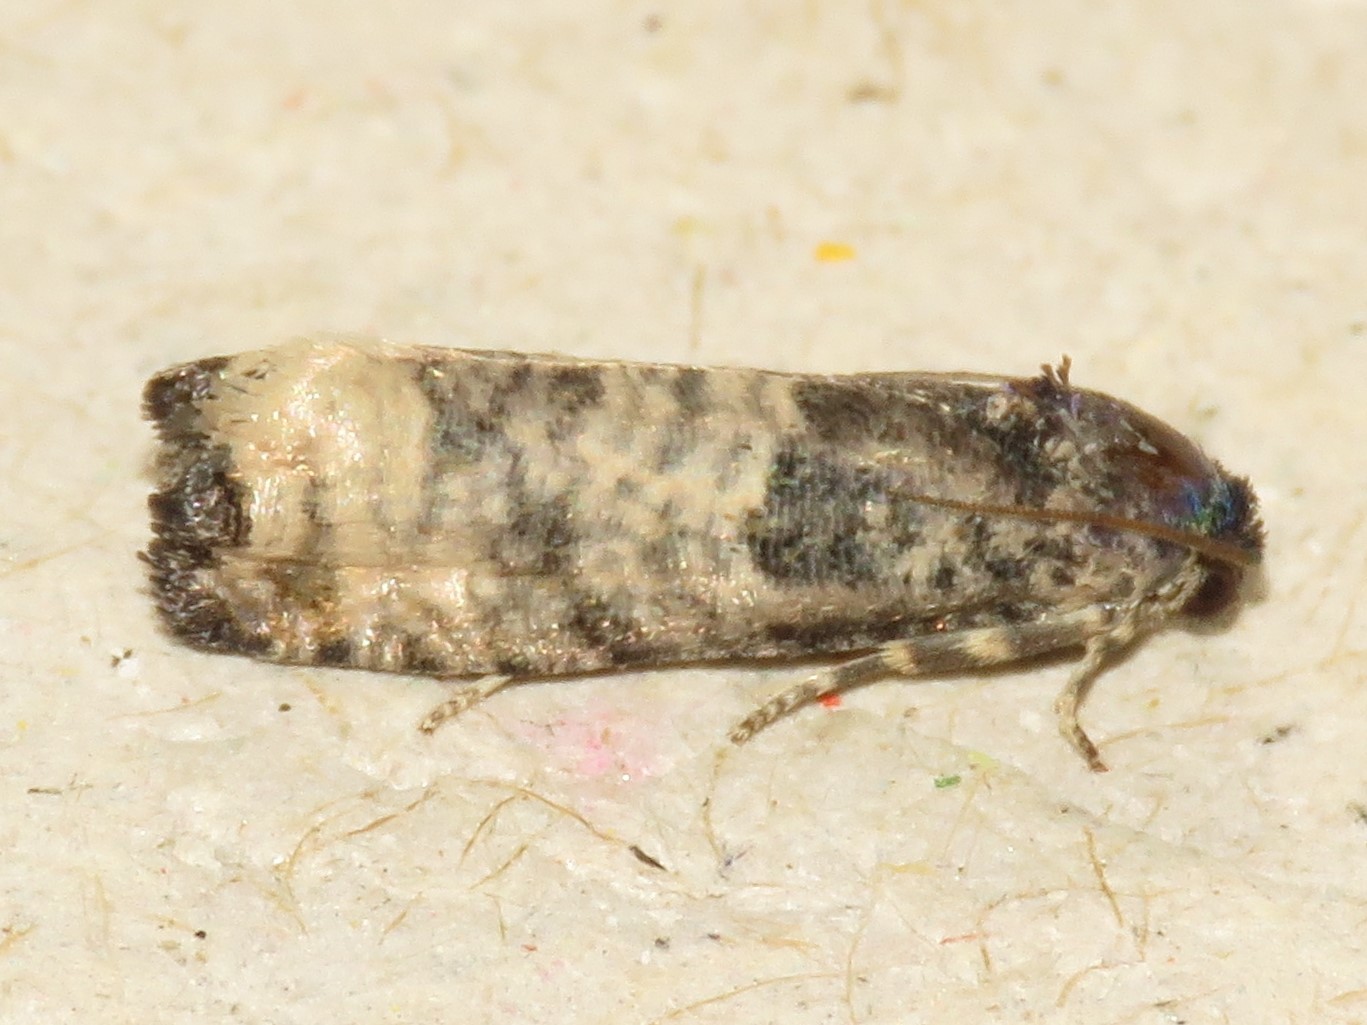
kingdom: Animalia
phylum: Arthropoda
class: Insecta
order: Lepidoptera
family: Tortricidae
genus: Epiblema
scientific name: Epiblema obfuscana
